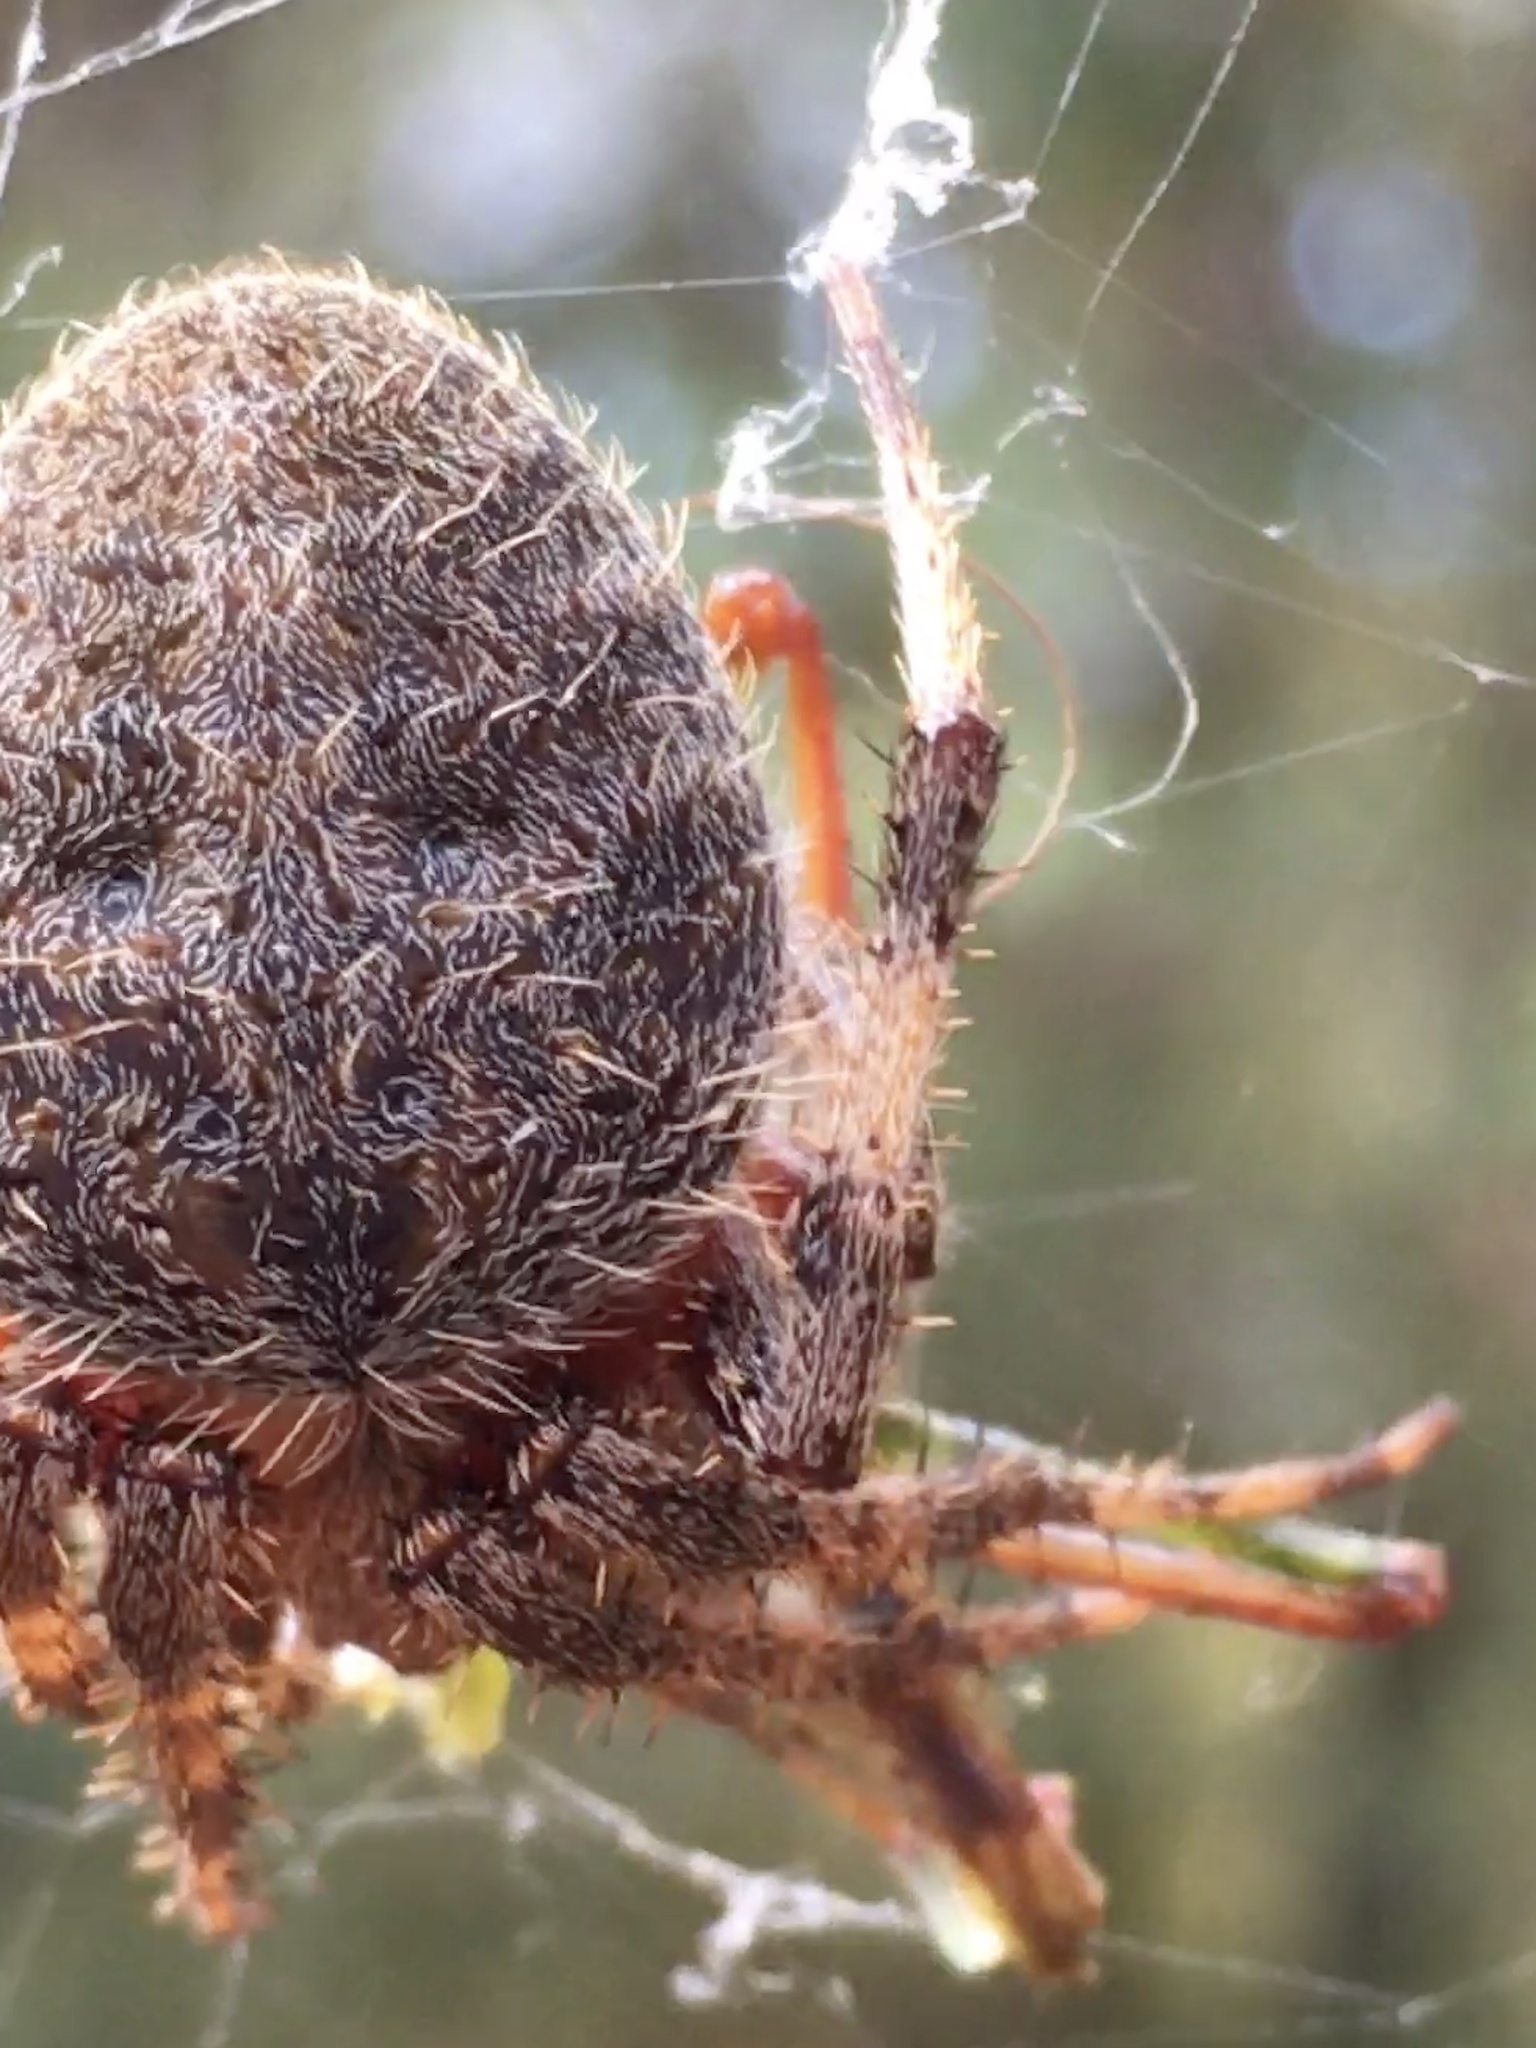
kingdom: Animalia
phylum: Arthropoda
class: Arachnida
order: Araneae
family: Araneidae
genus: Neoscona
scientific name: Neoscona crucifera
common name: Spotted orbweaver
